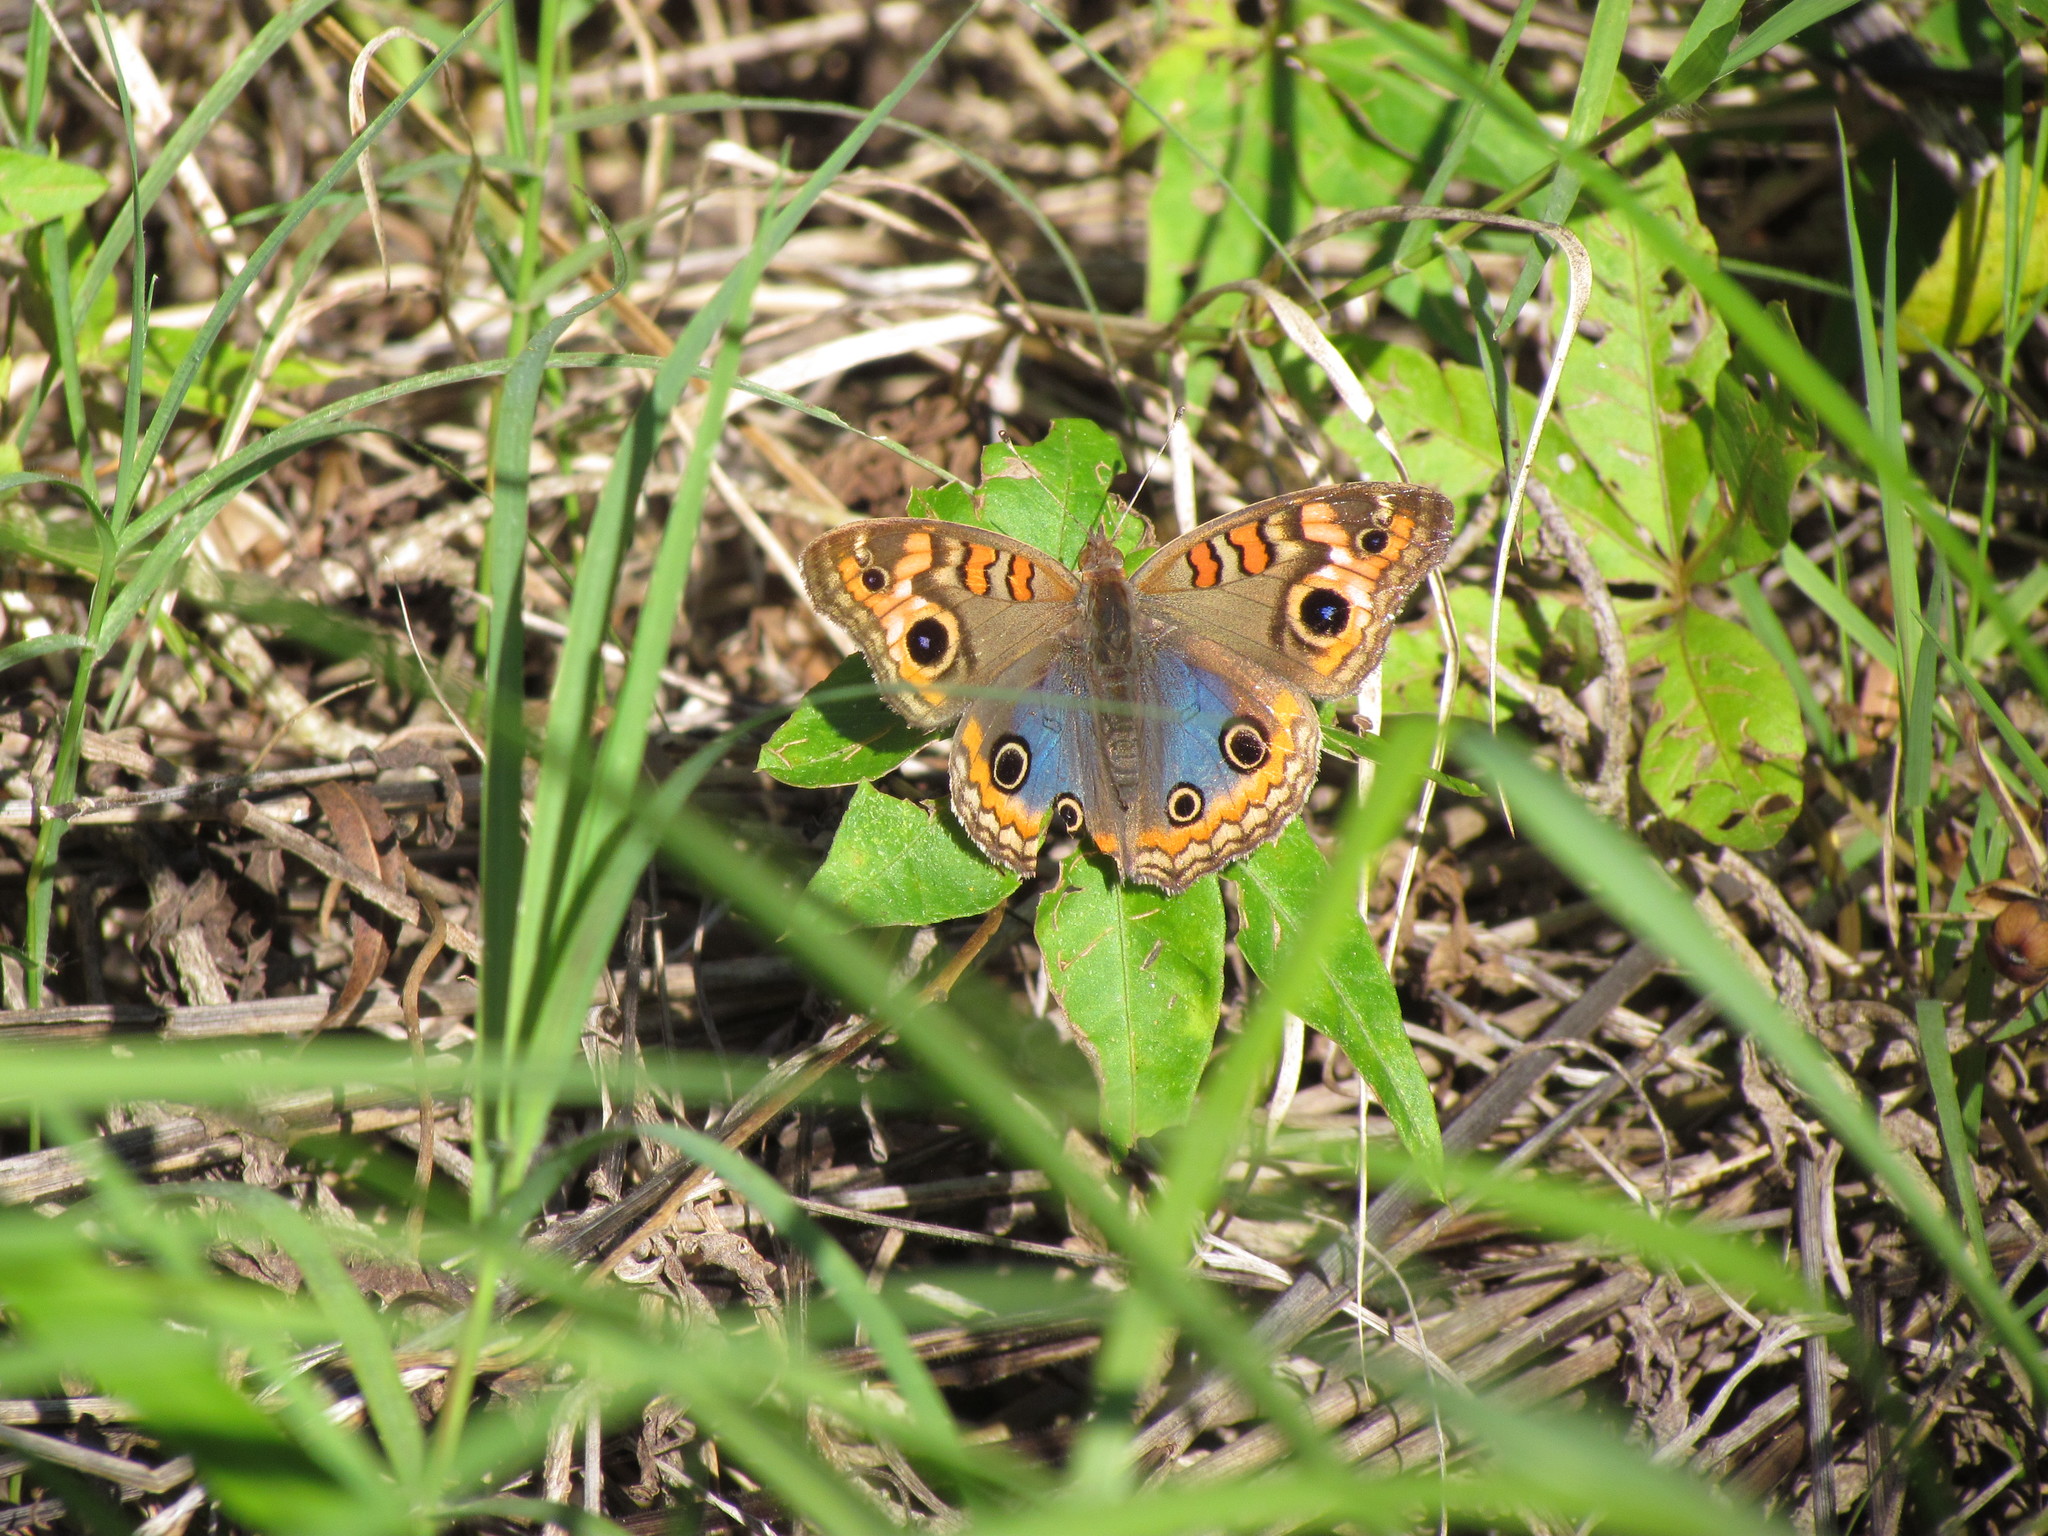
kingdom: Animalia
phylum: Arthropoda
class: Insecta
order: Lepidoptera
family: Nymphalidae
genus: Junonia
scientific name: Junonia lavinia
